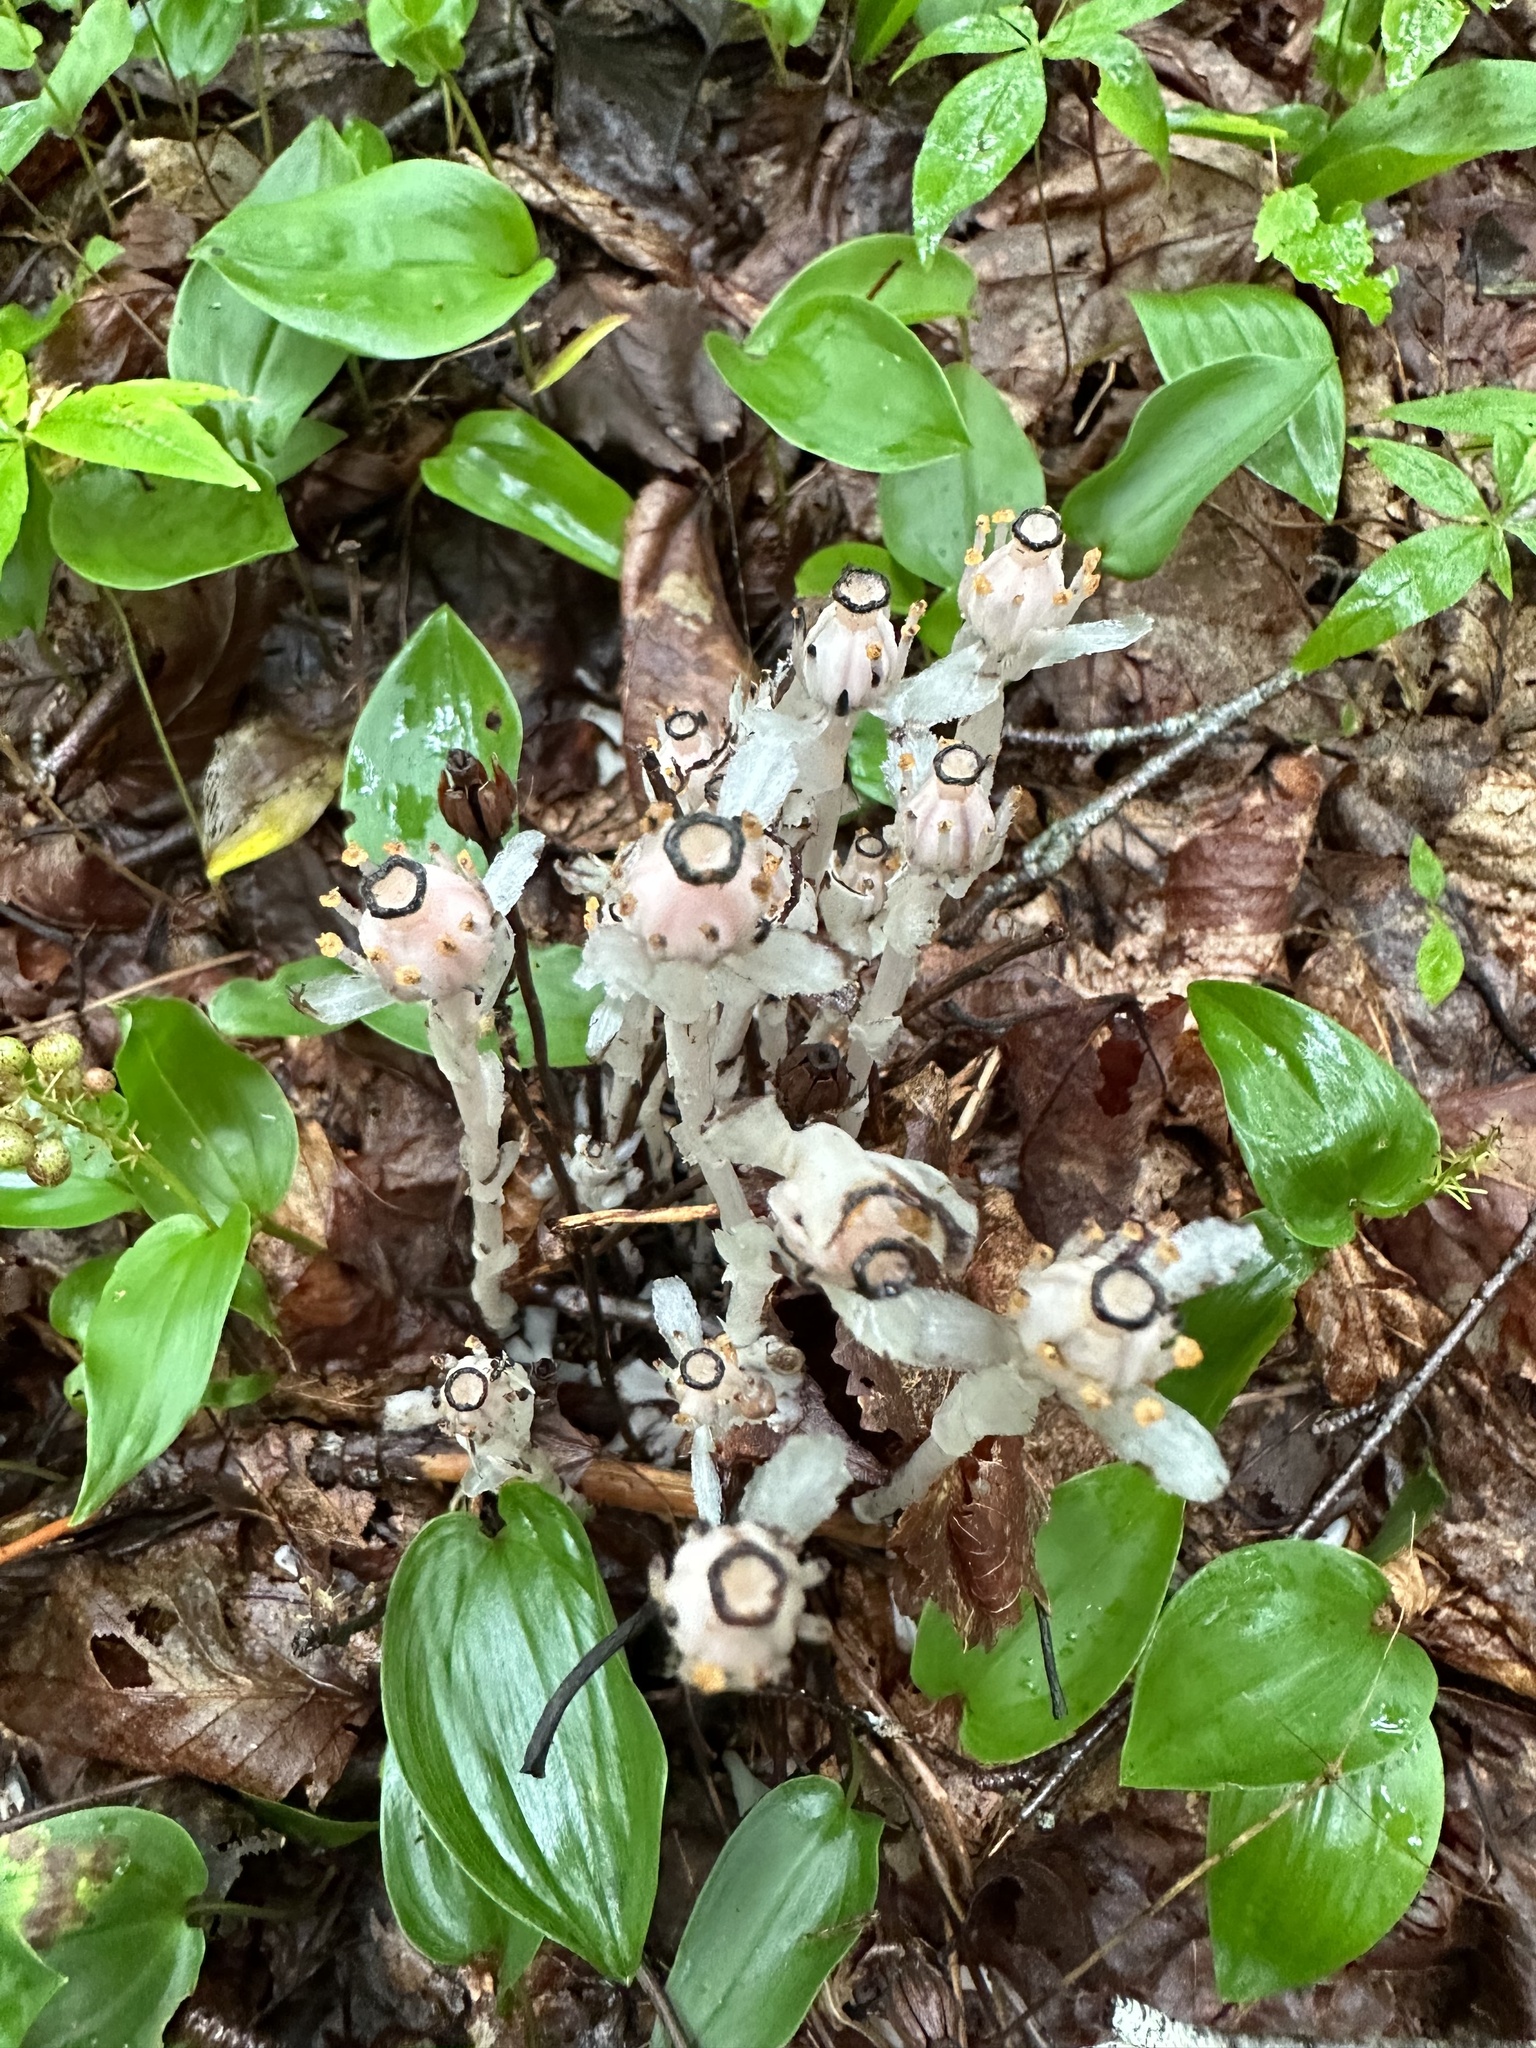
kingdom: Plantae
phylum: Tracheophyta
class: Magnoliopsida
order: Ericales
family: Ericaceae
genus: Monotropa
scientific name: Monotropa uniflora
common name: Convulsion root
